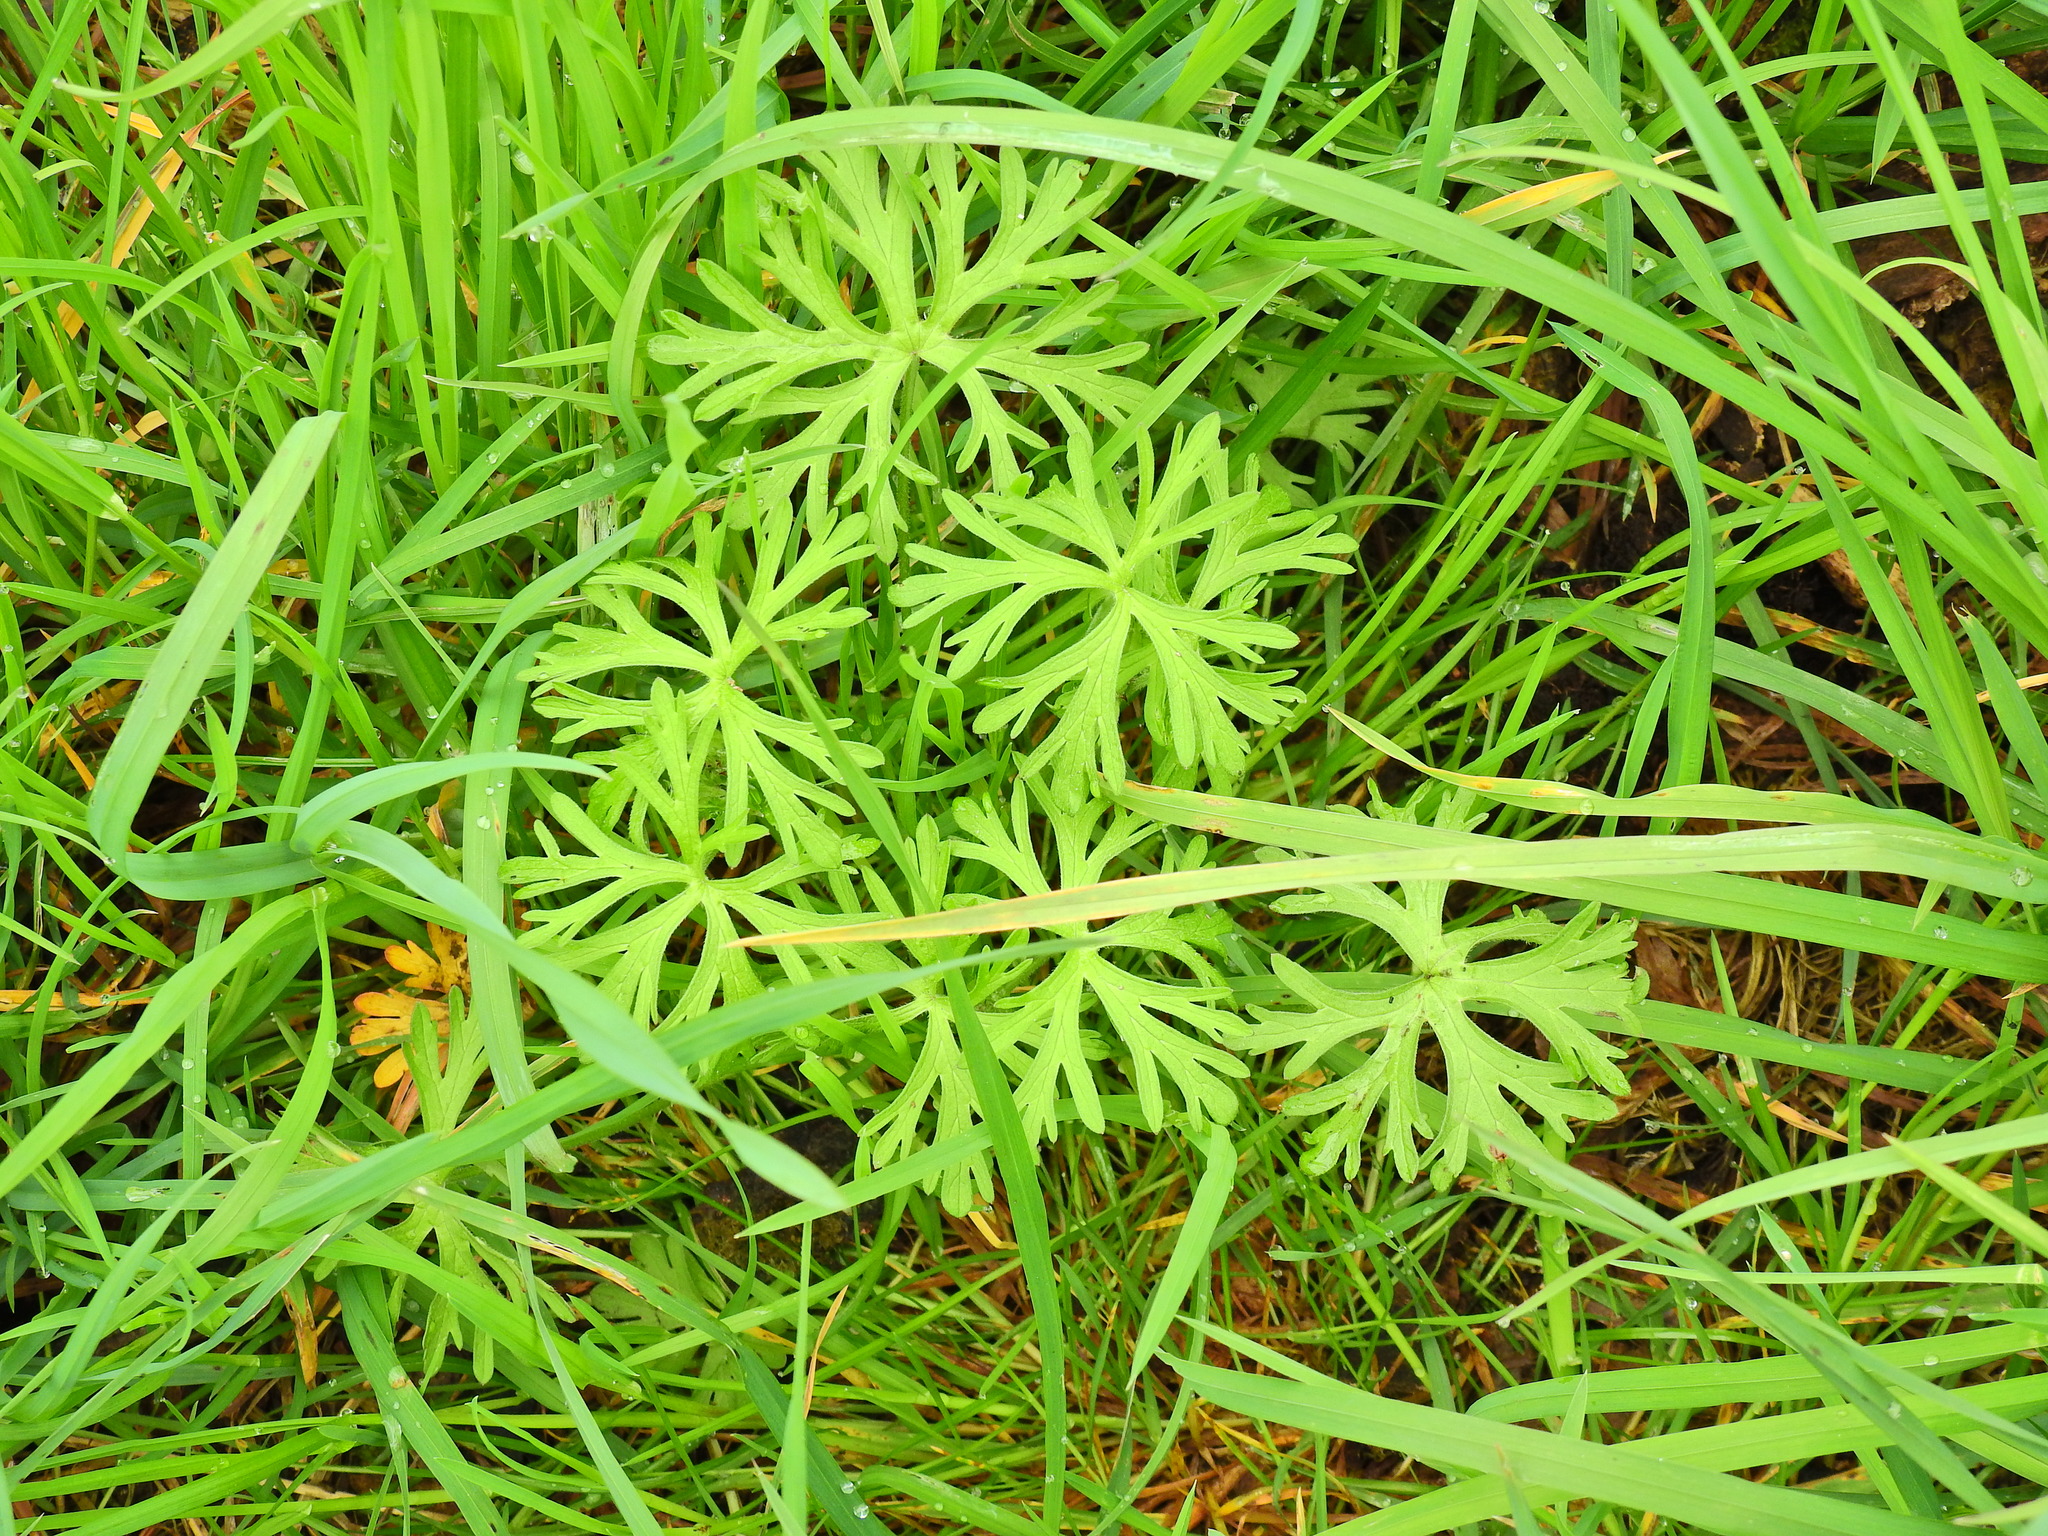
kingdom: Plantae
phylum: Tracheophyta
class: Magnoliopsida
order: Geraniales
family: Geraniaceae
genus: Geranium
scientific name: Geranium dissectum
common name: Cut-leaved crane's-bill
